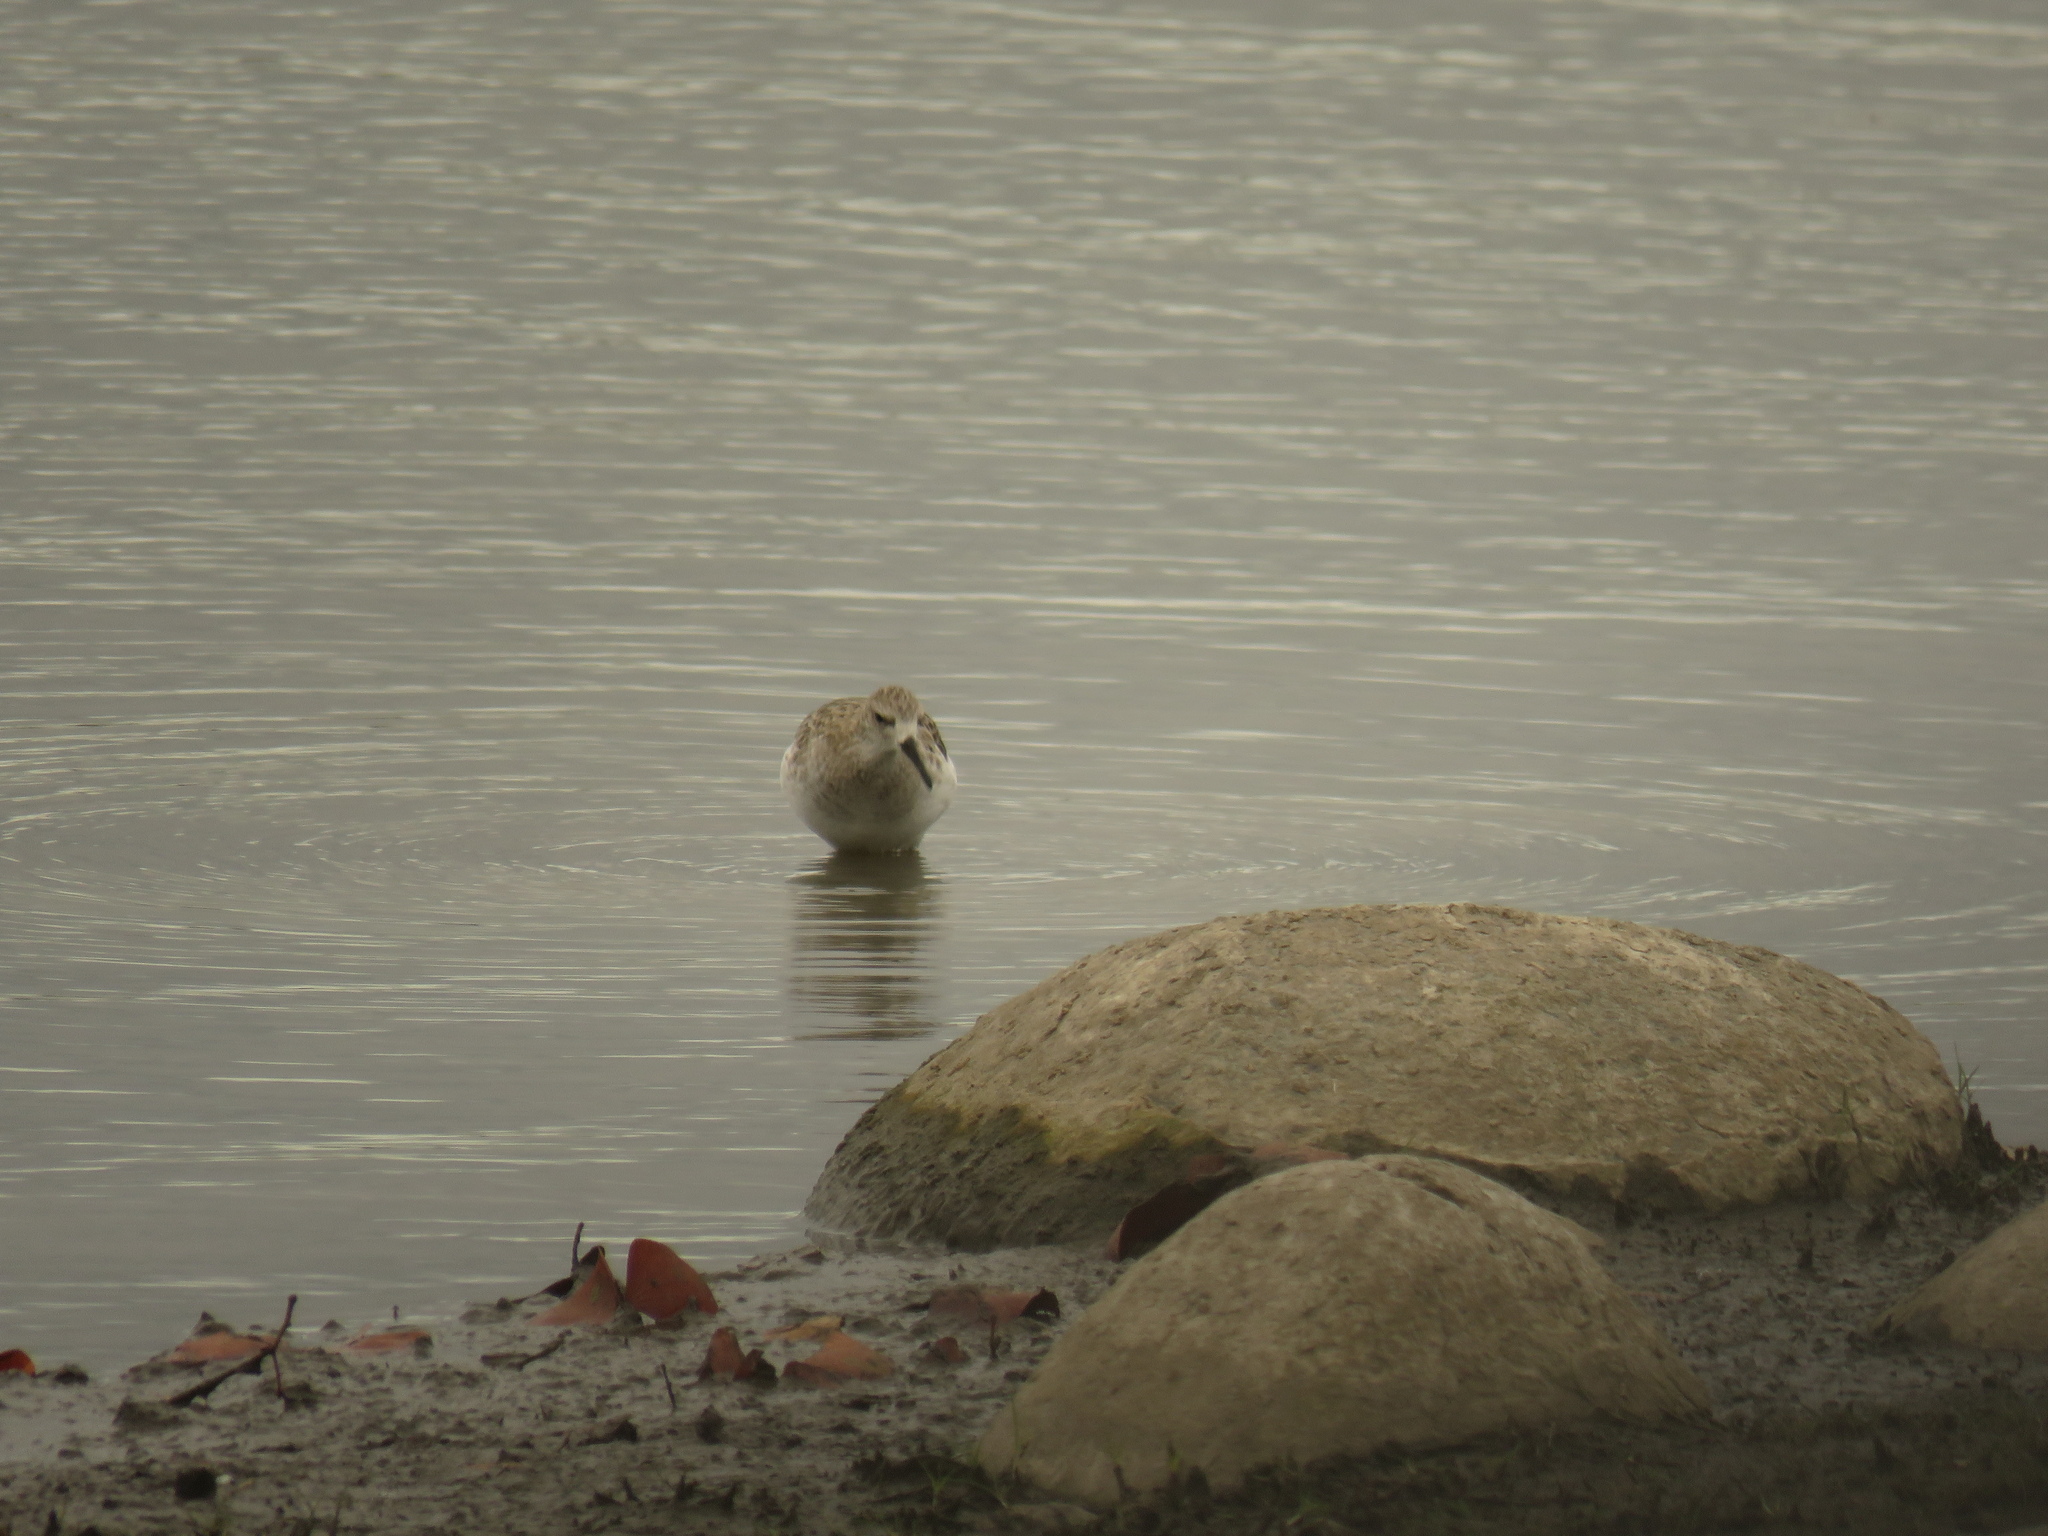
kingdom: Animalia
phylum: Chordata
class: Aves
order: Charadriiformes
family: Scolopacidae
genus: Calidris
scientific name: Calidris pugnax
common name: Ruff
